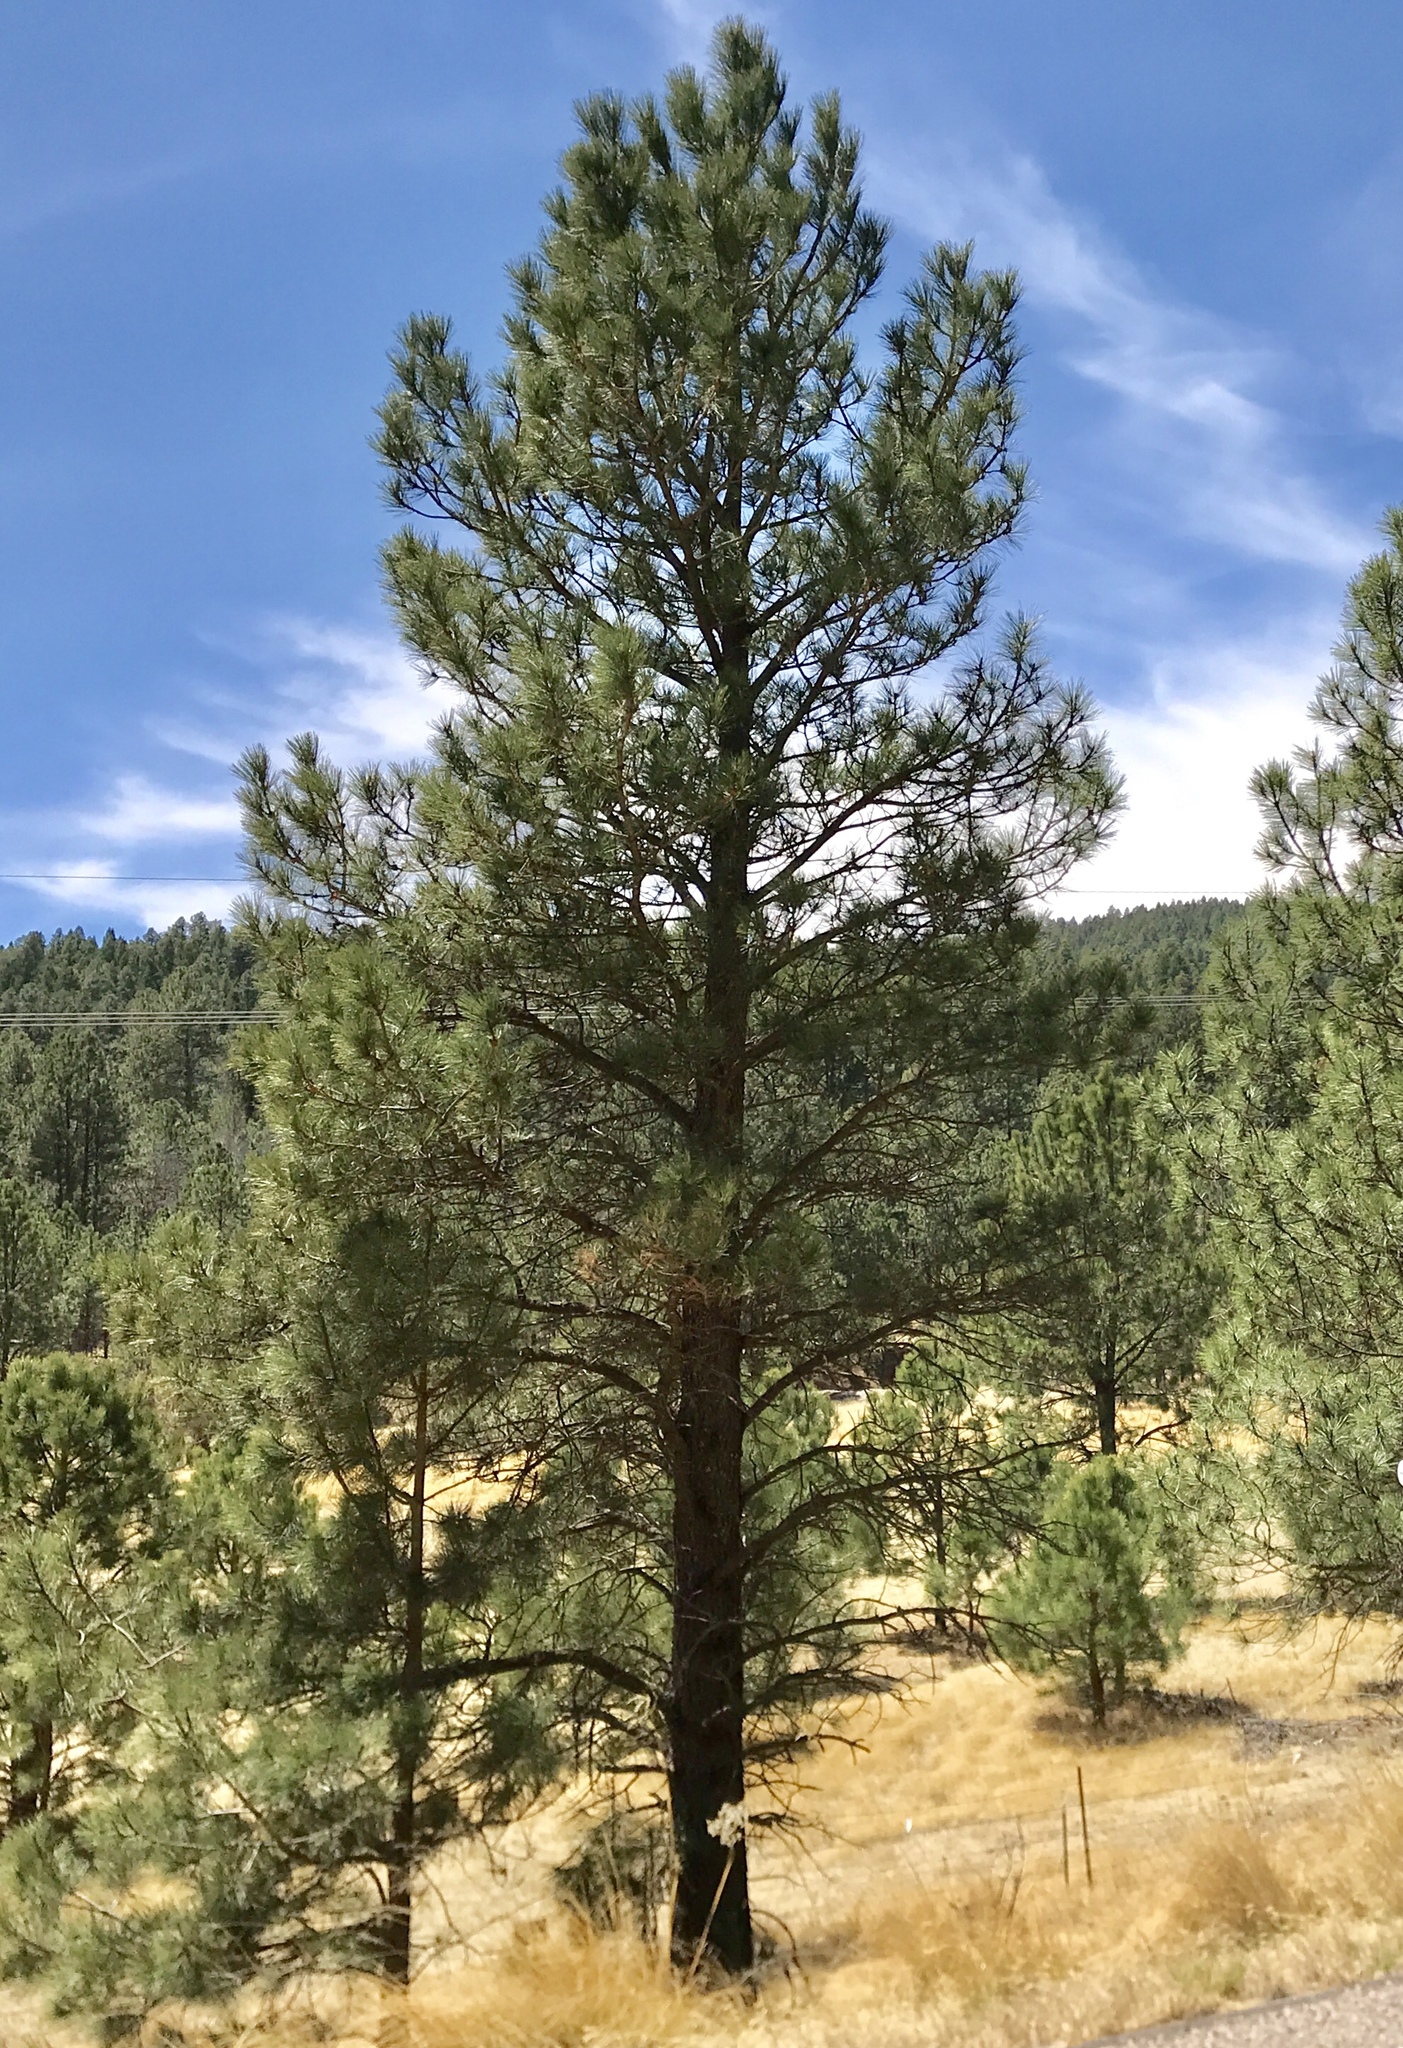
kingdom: Plantae
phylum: Tracheophyta
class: Pinopsida
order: Pinales
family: Pinaceae
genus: Pinus
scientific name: Pinus ponderosa
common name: Western yellow-pine
